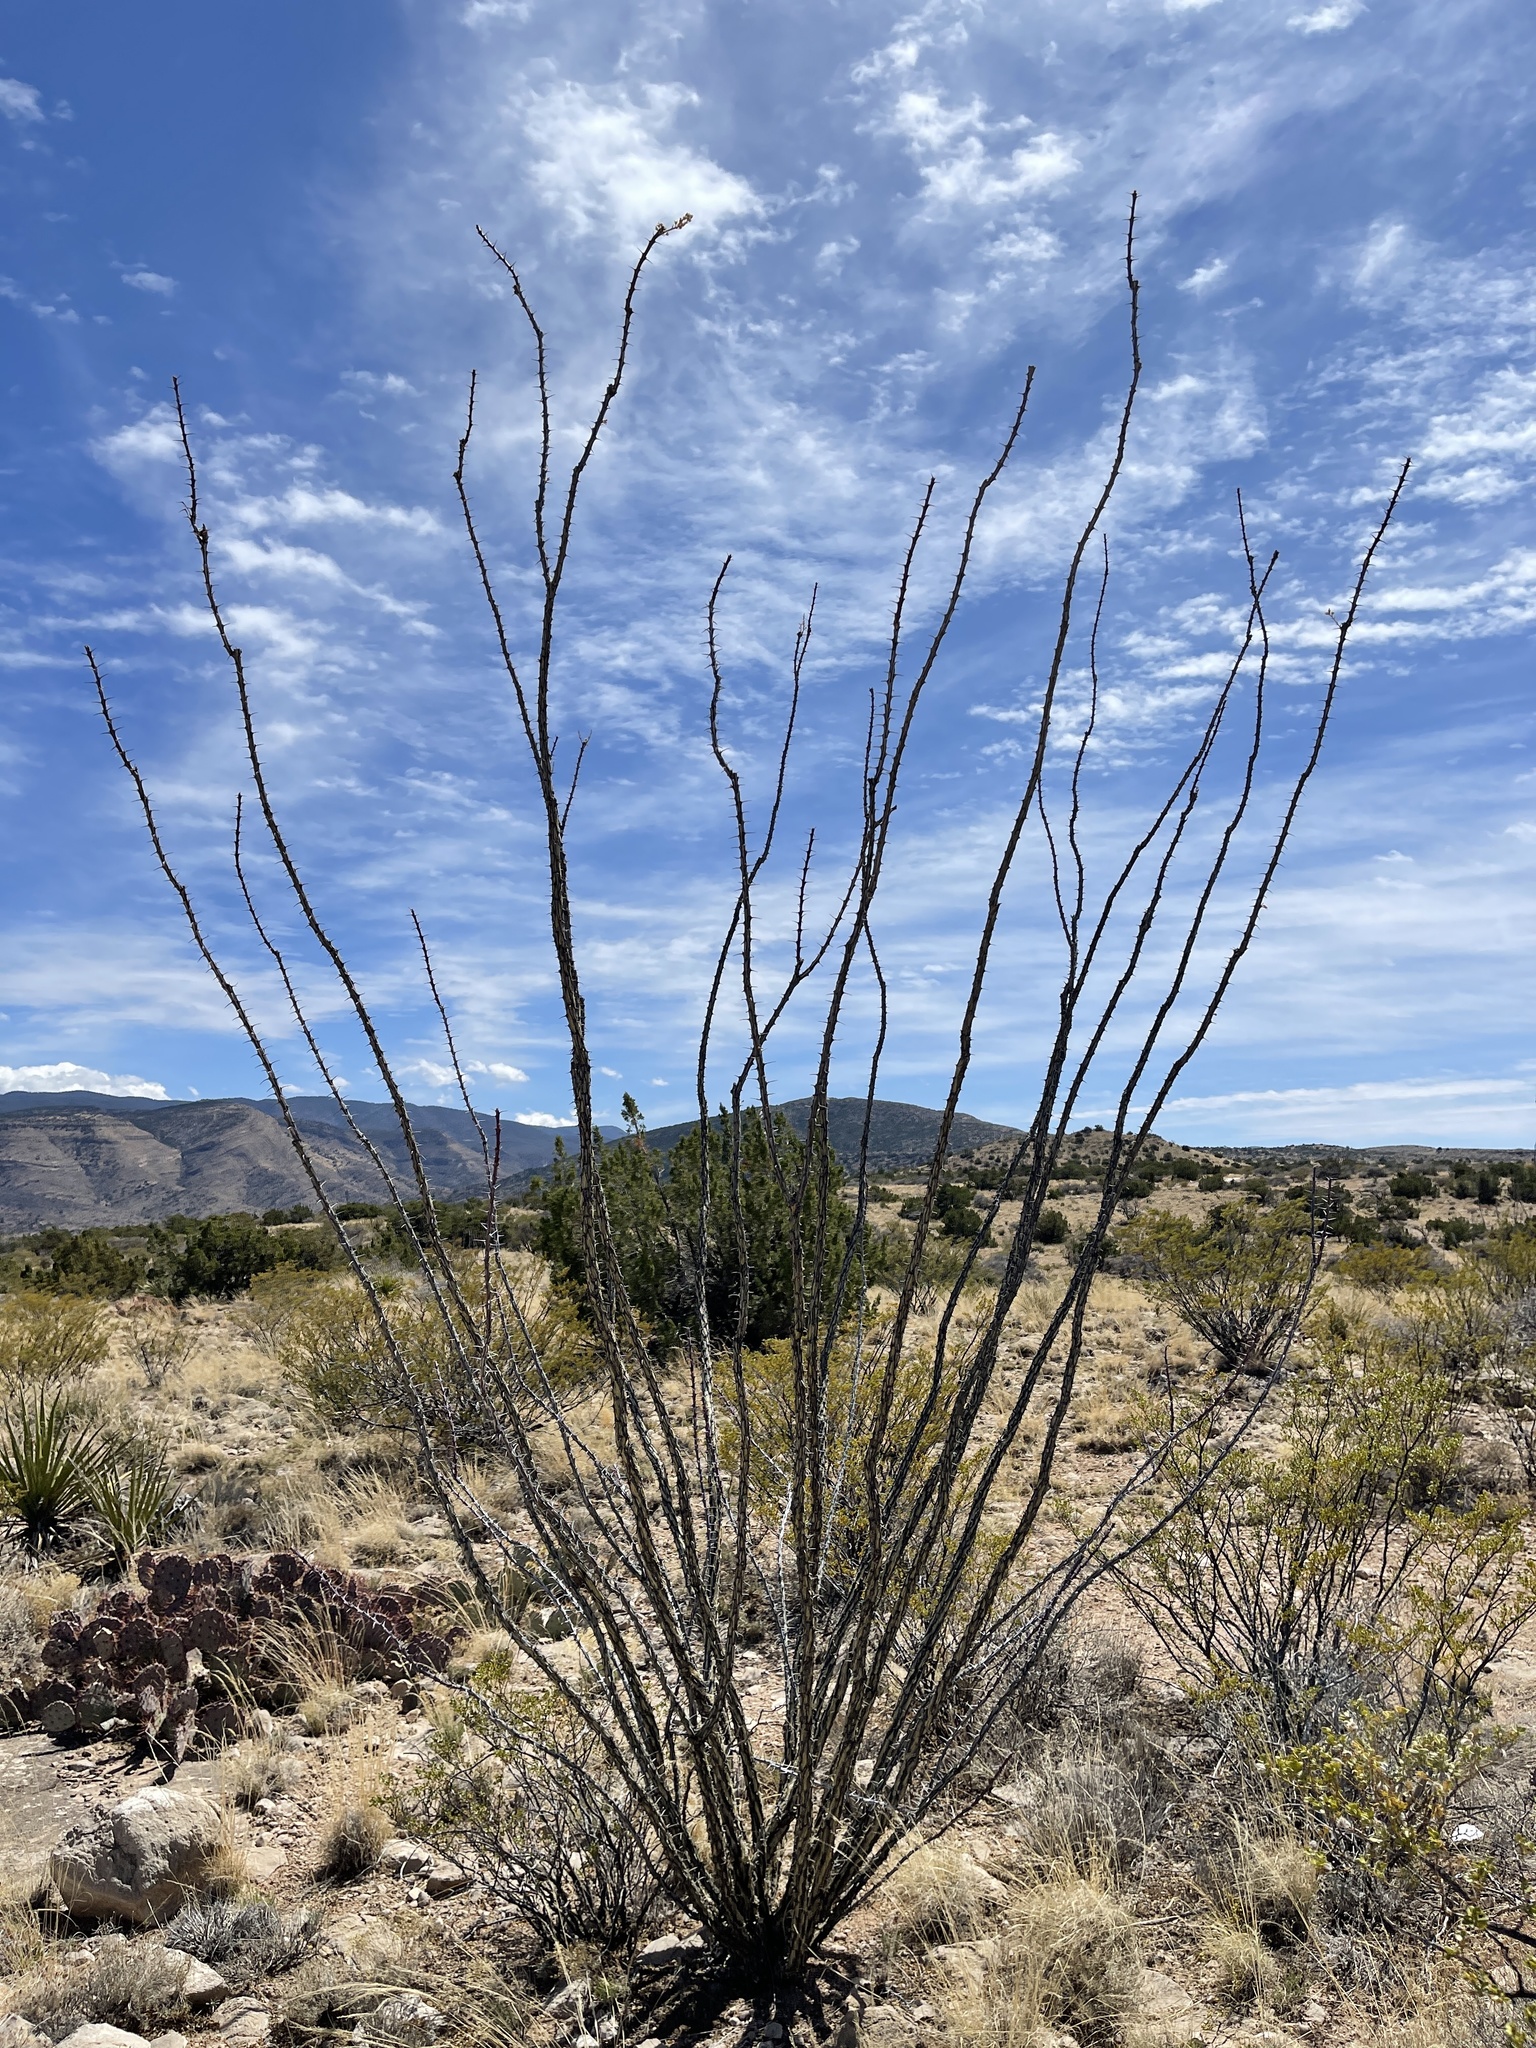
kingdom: Plantae
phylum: Tracheophyta
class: Magnoliopsida
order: Ericales
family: Fouquieriaceae
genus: Fouquieria
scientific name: Fouquieria splendens
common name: Vine-cactus
